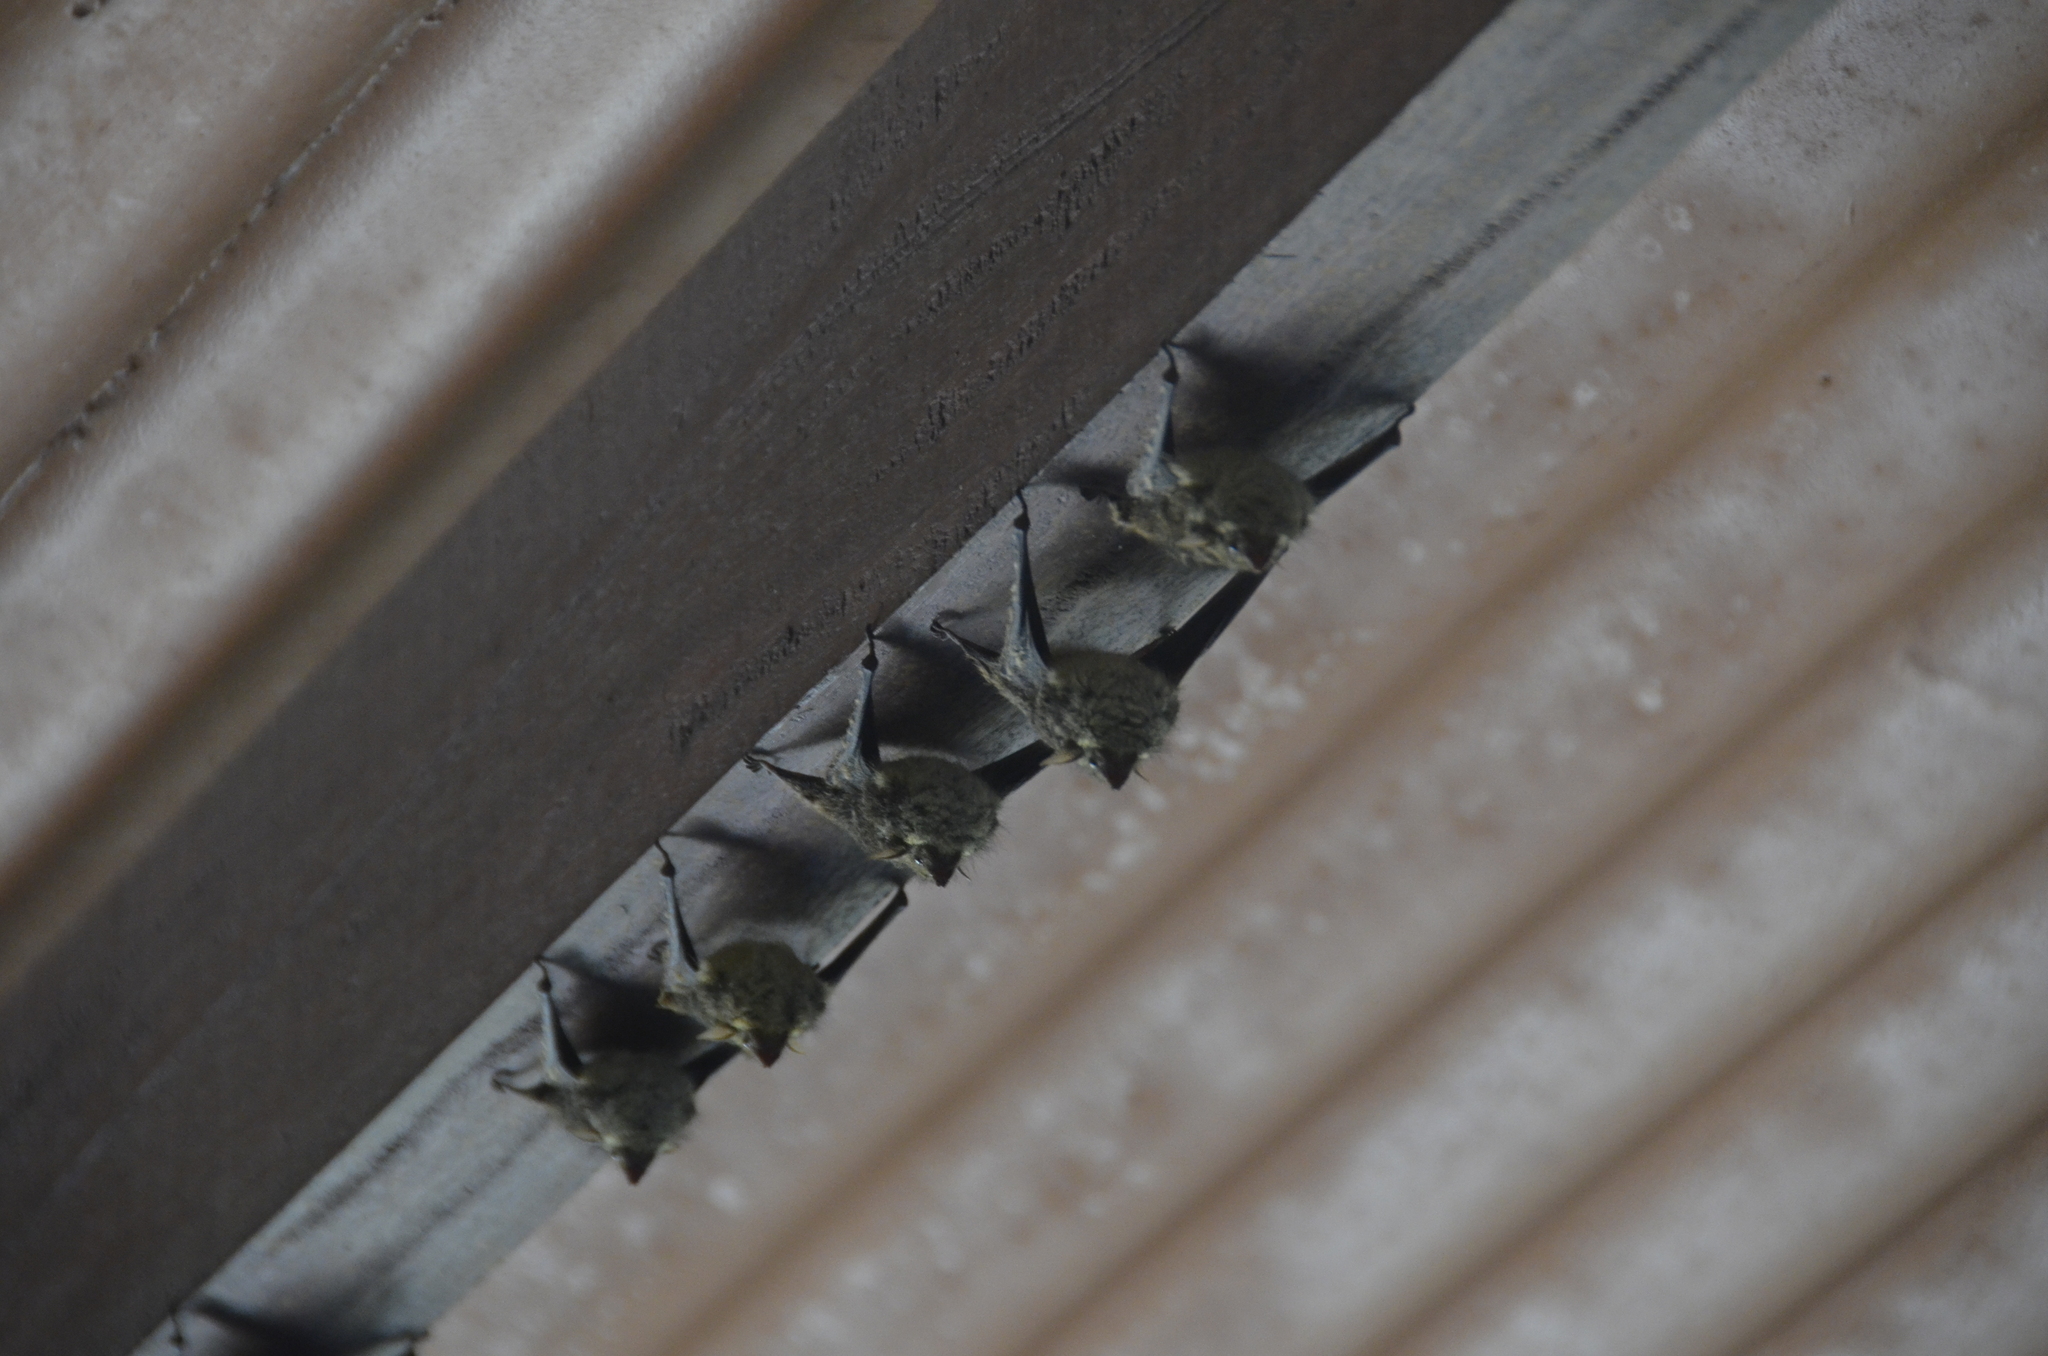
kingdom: Animalia
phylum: Chordata
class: Mammalia
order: Chiroptera
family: Emballonuridae
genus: Rhynchonycteris
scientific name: Rhynchonycteris naso
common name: Proboscis bat
